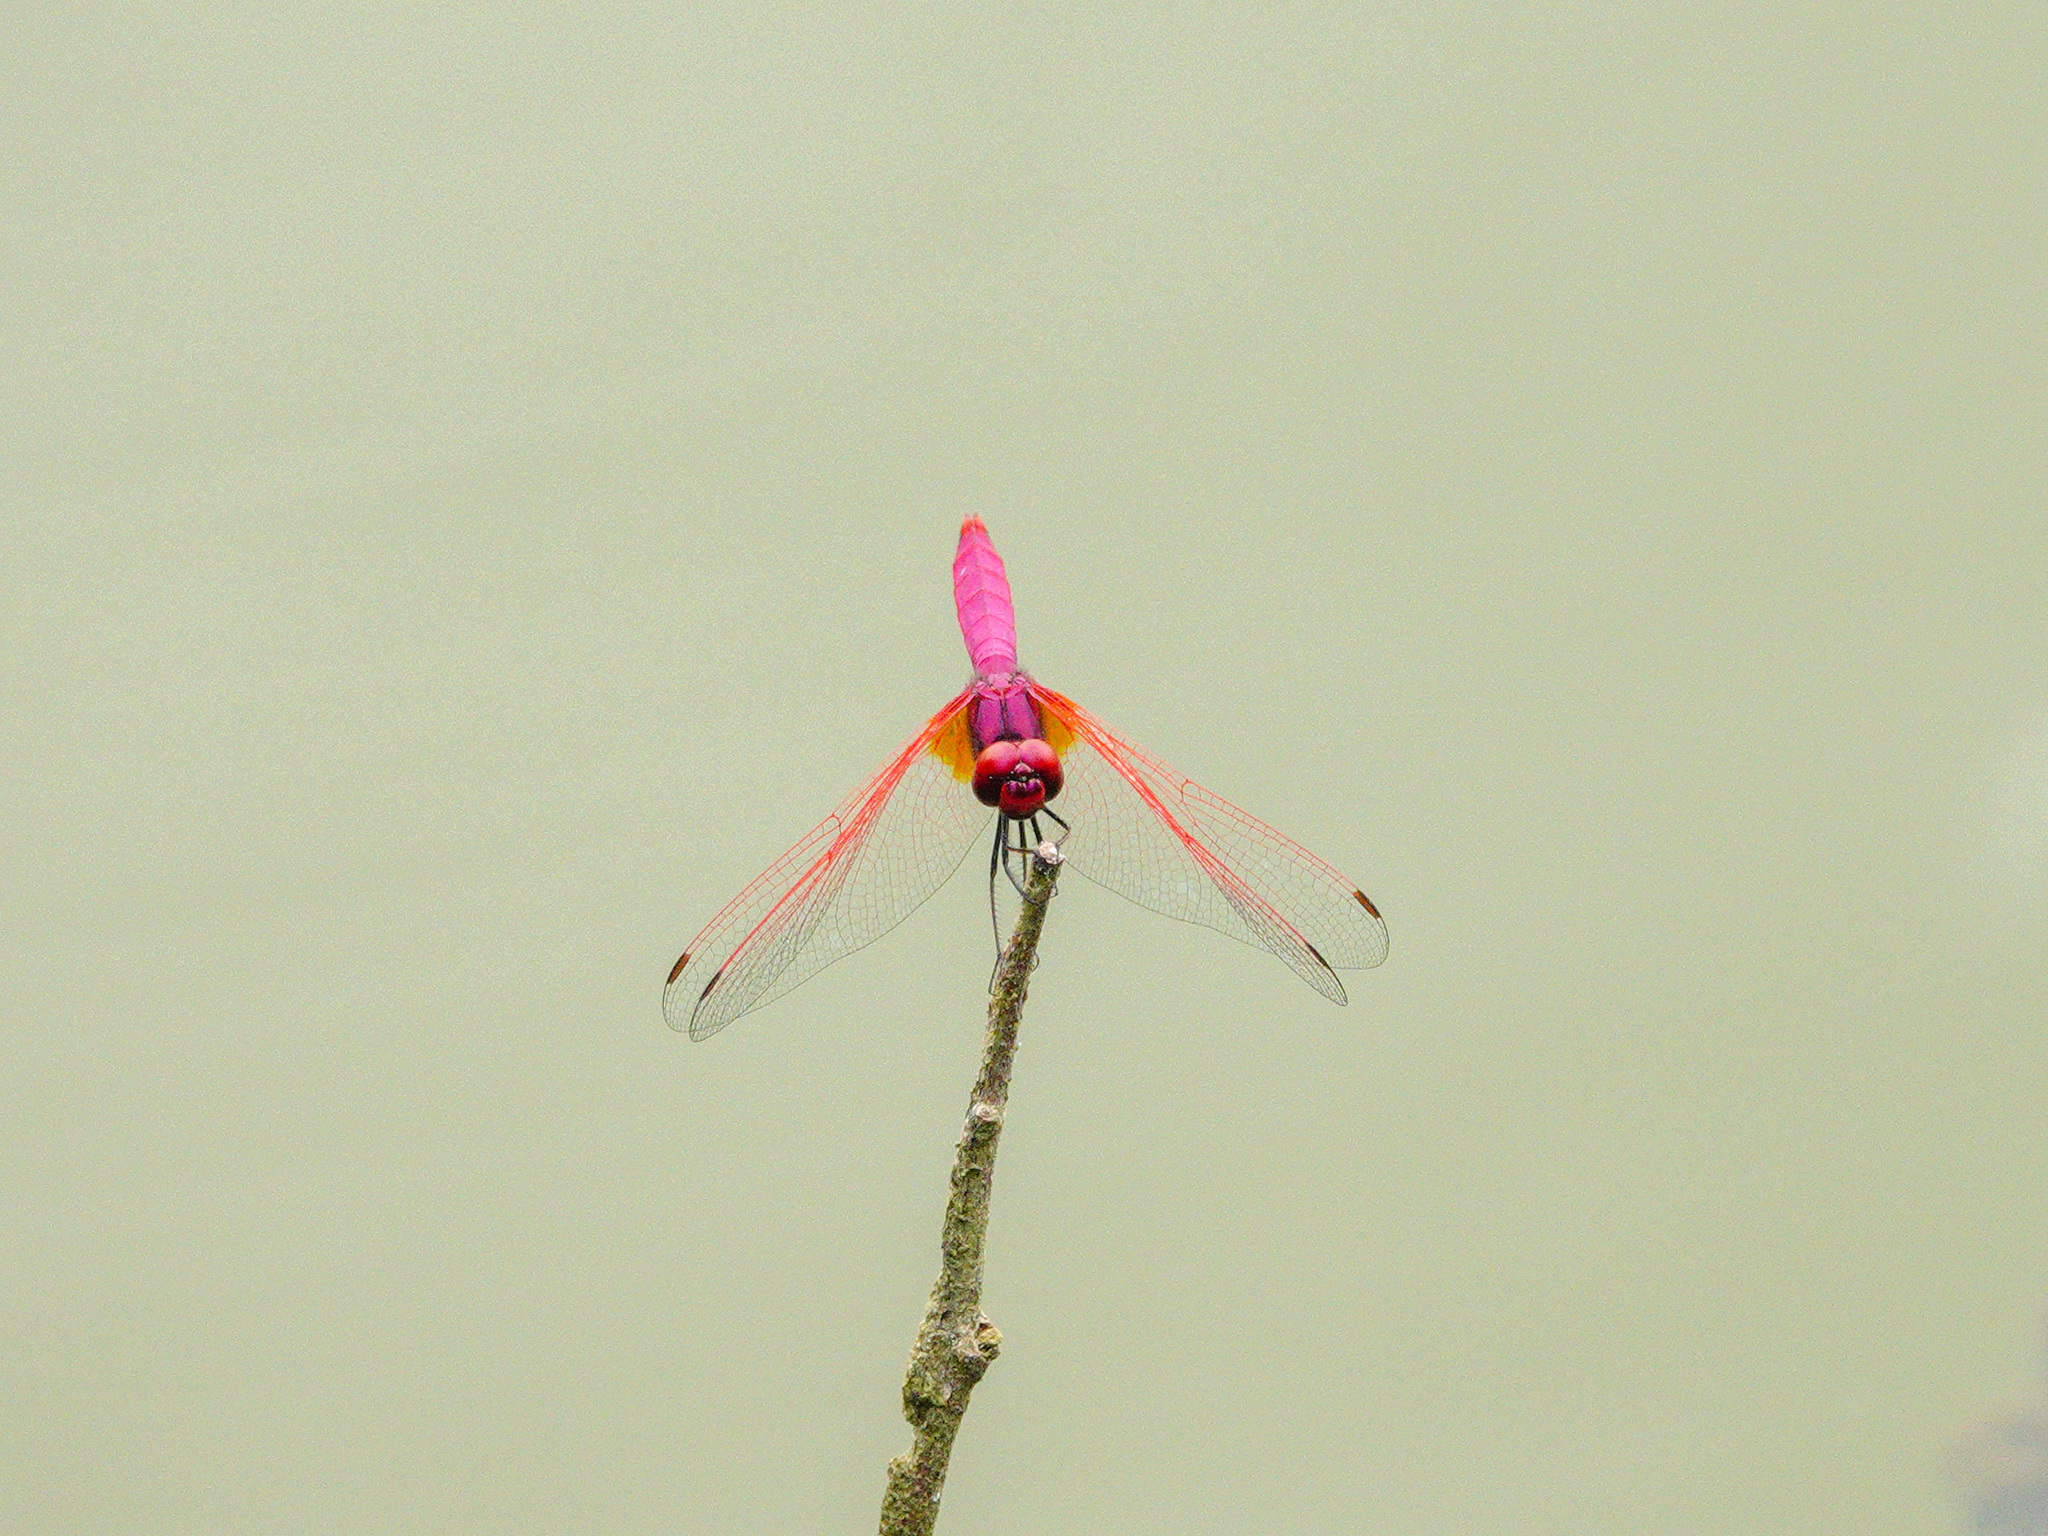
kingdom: Animalia
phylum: Arthropoda
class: Insecta
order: Odonata
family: Libellulidae
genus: Trithemis
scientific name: Trithemis aurora
